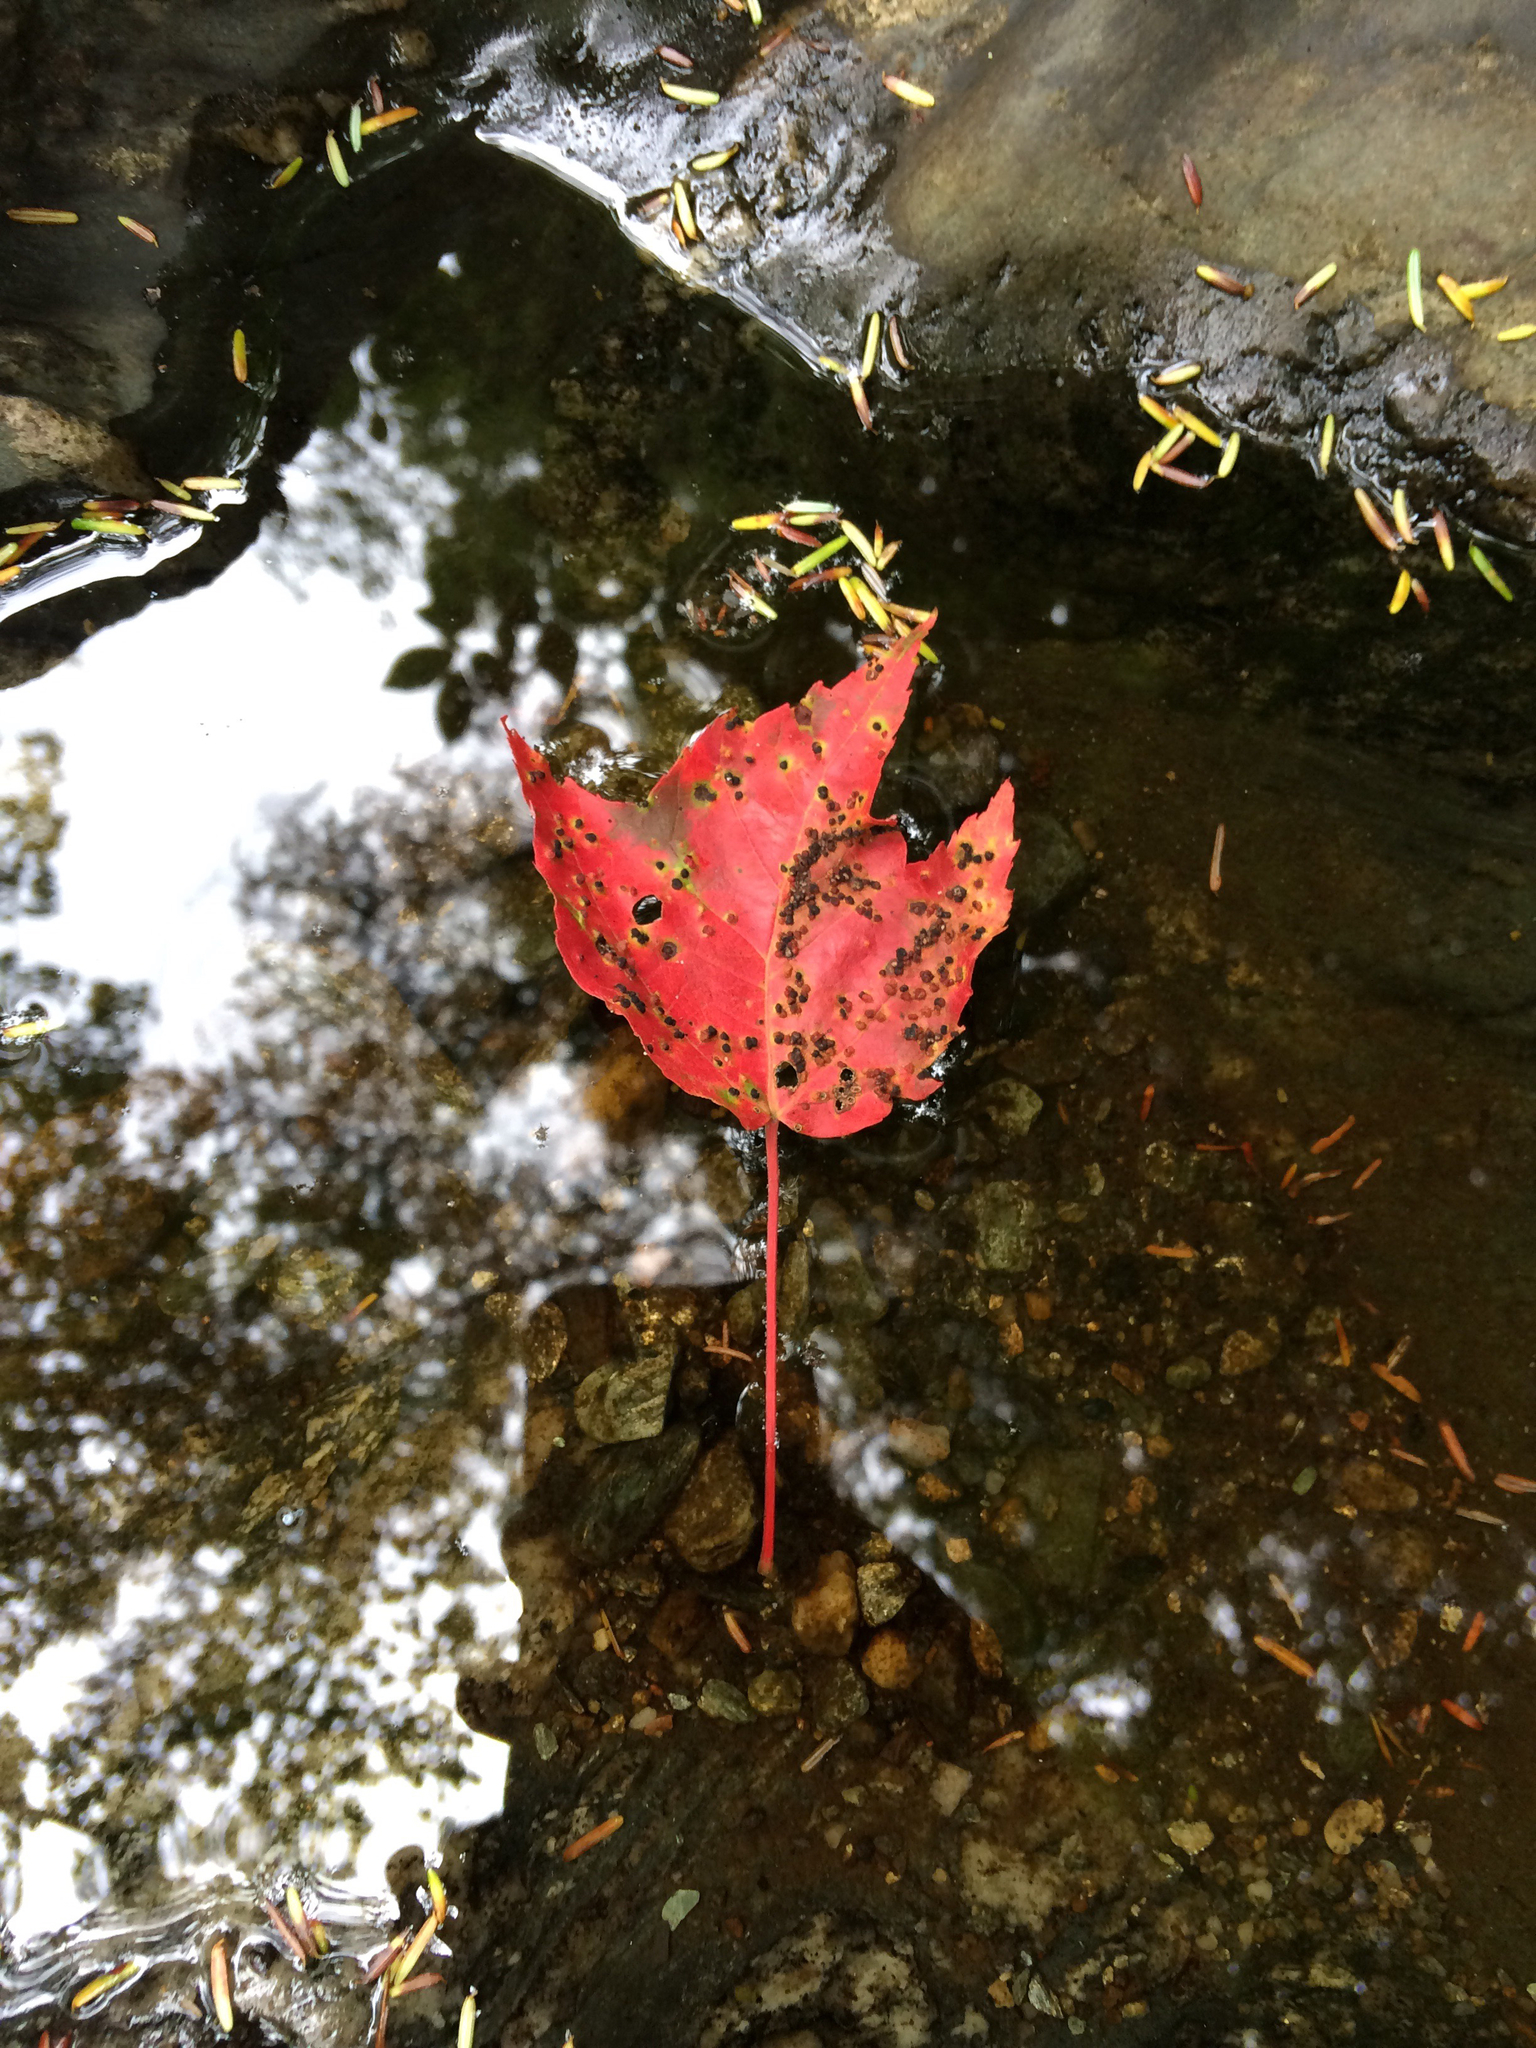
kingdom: Plantae
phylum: Tracheophyta
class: Magnoliopsida
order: Sapindales
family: Sapindaceae
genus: Acer
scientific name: Acer rubrum
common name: Red maple
